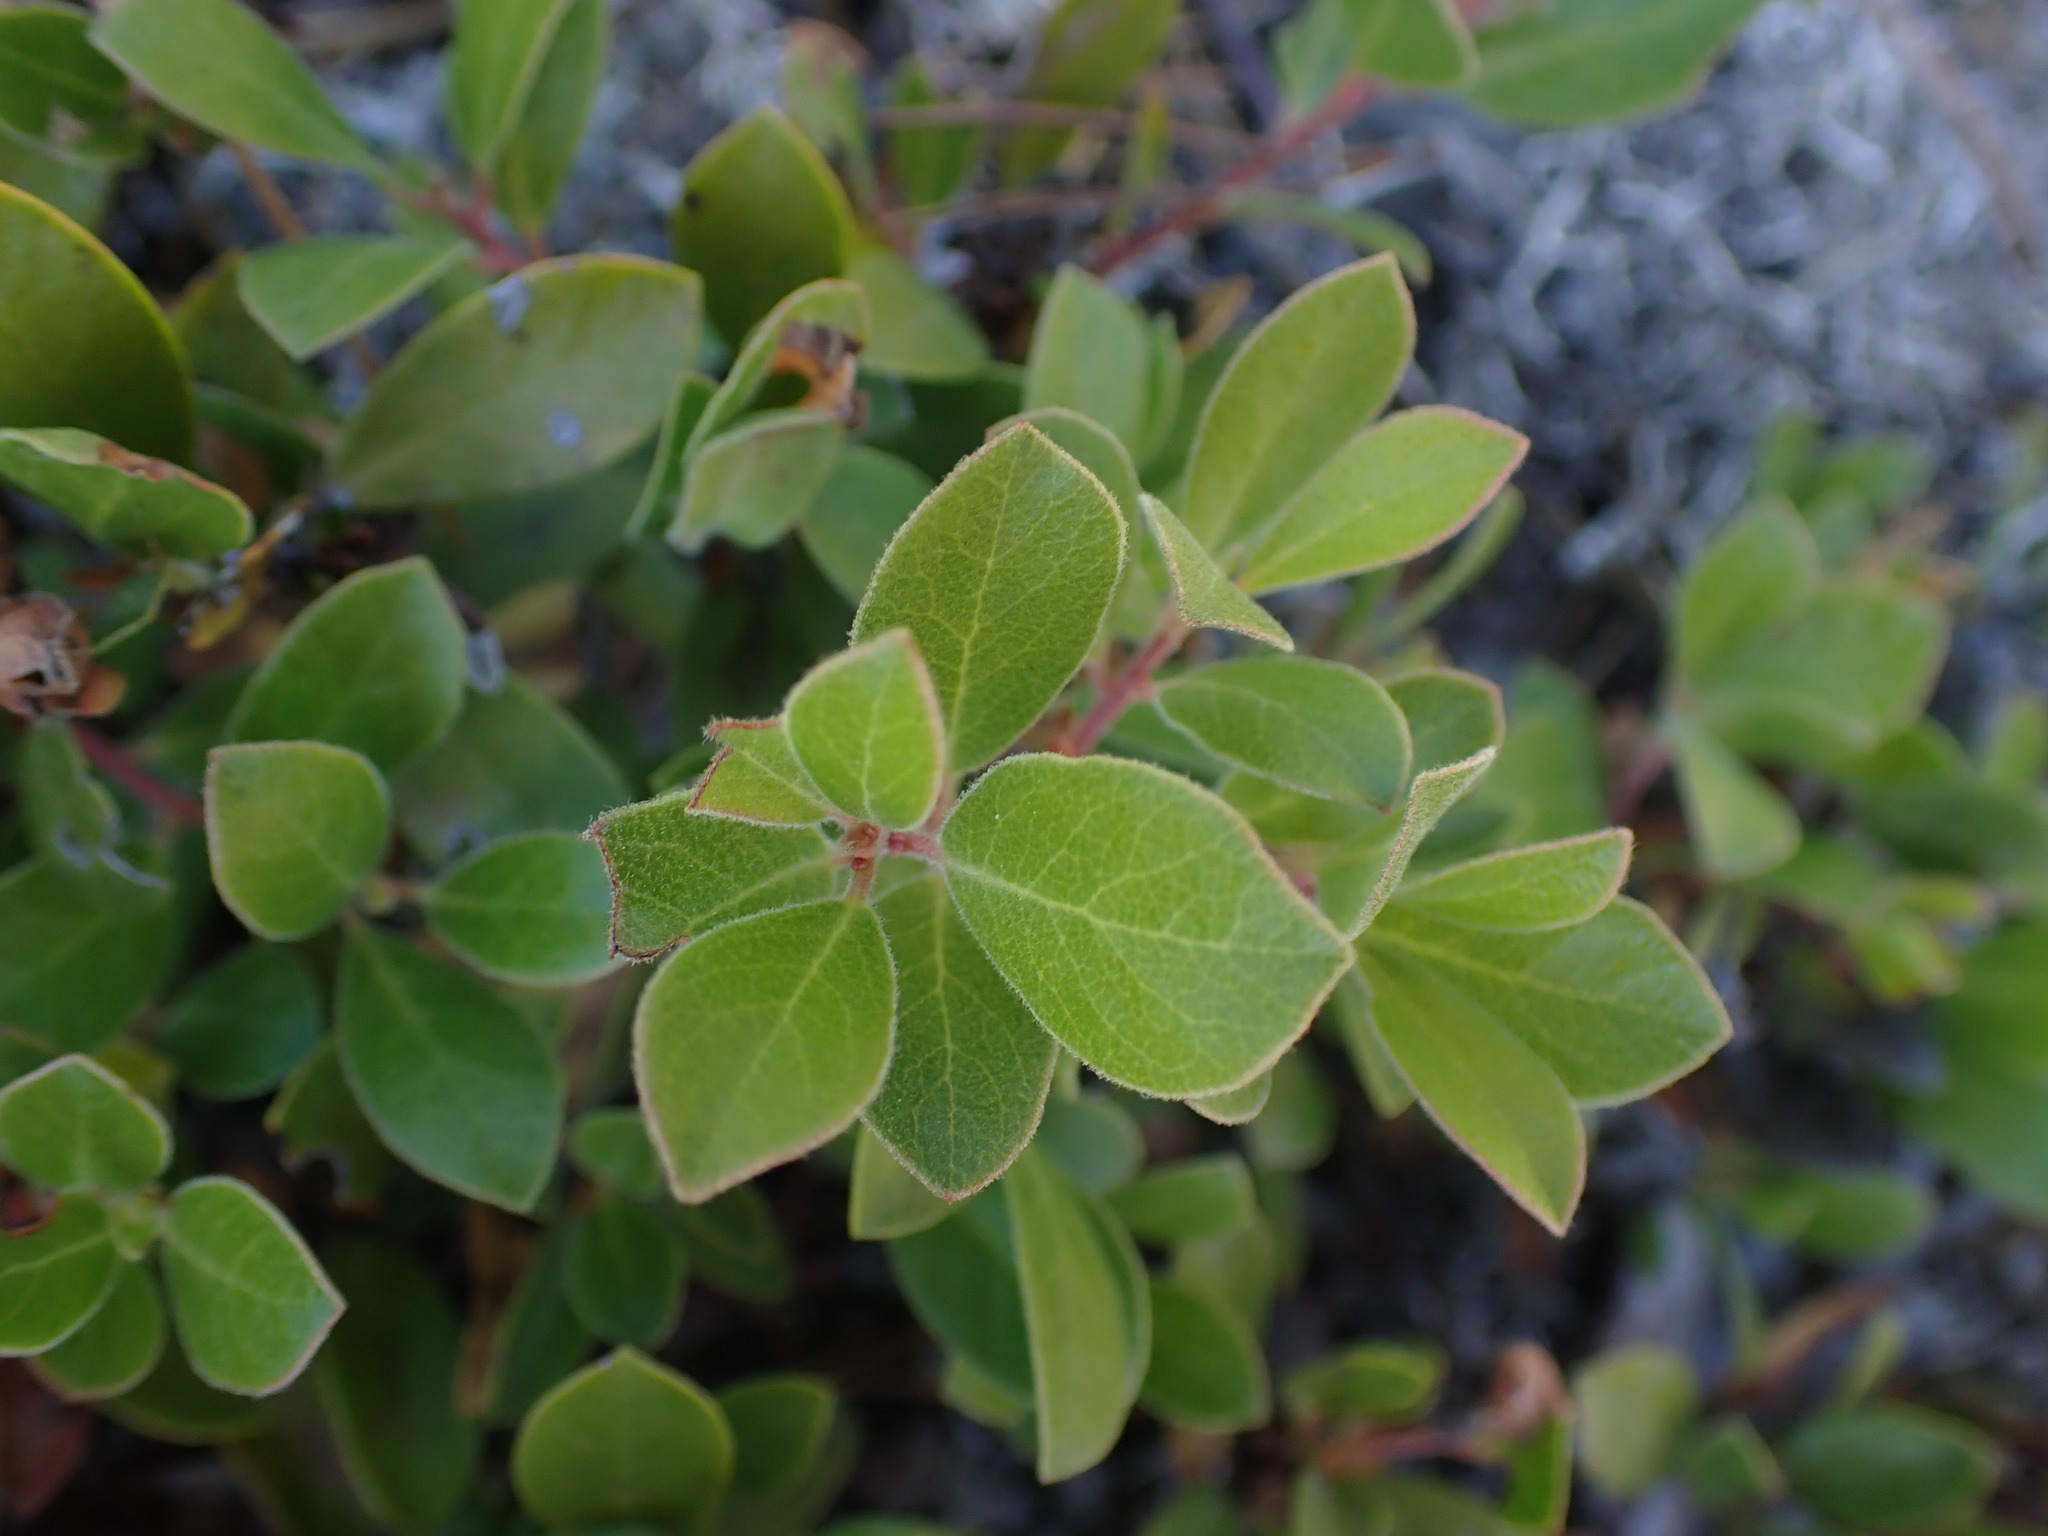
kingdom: Plantae
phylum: Tracheophyta
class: Magnoliopsida
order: Ericales
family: Ericaceae
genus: Arctostaphylos
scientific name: Arctostaphylos media
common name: Hybrid manzanita
